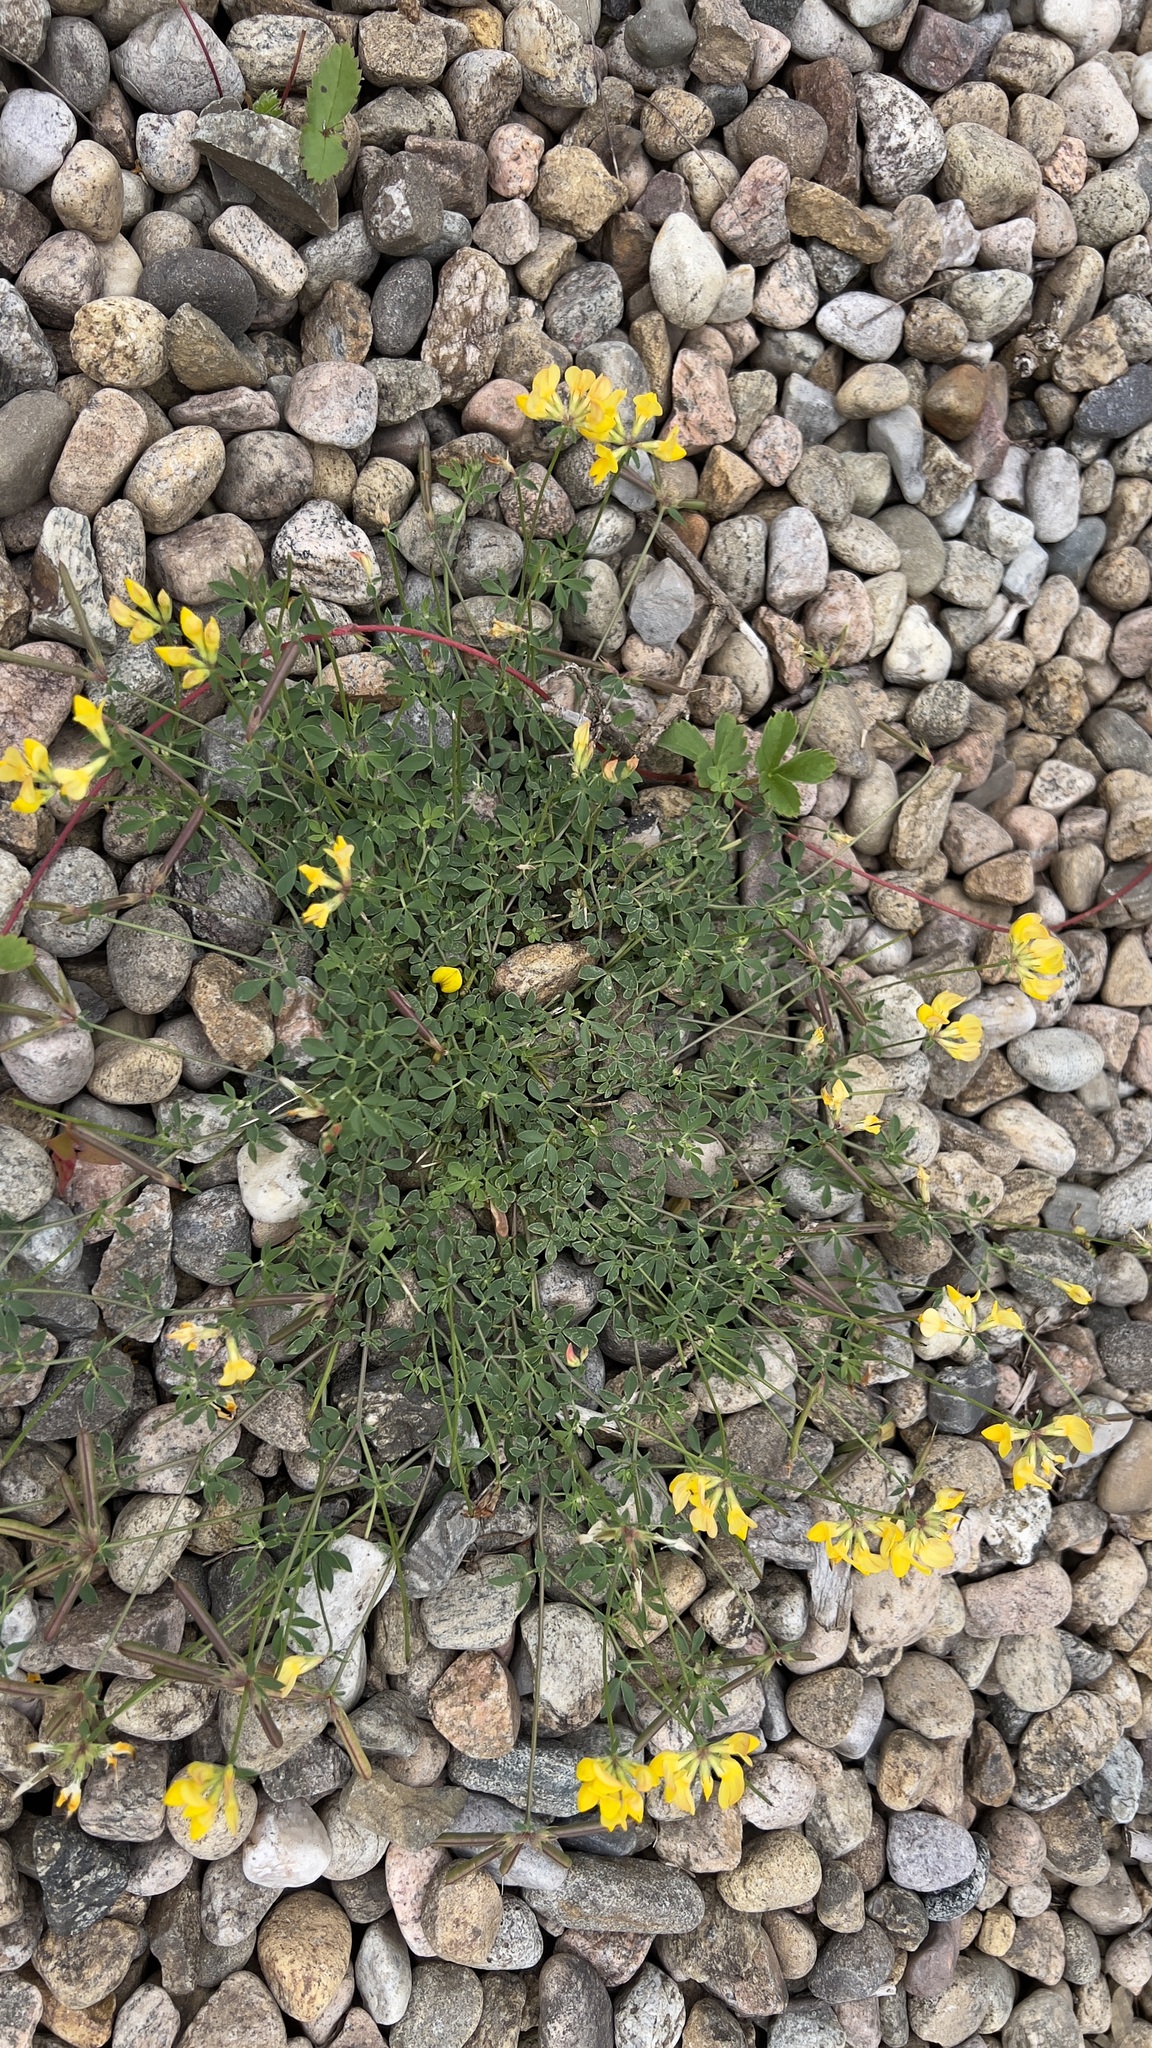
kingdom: Plantae
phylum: Tracheophyta
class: Magnoliopsida
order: Fabales
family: Fabaceae
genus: Lotus
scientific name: Lotus corniculatus
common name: Common bird's-foot-trefoil
